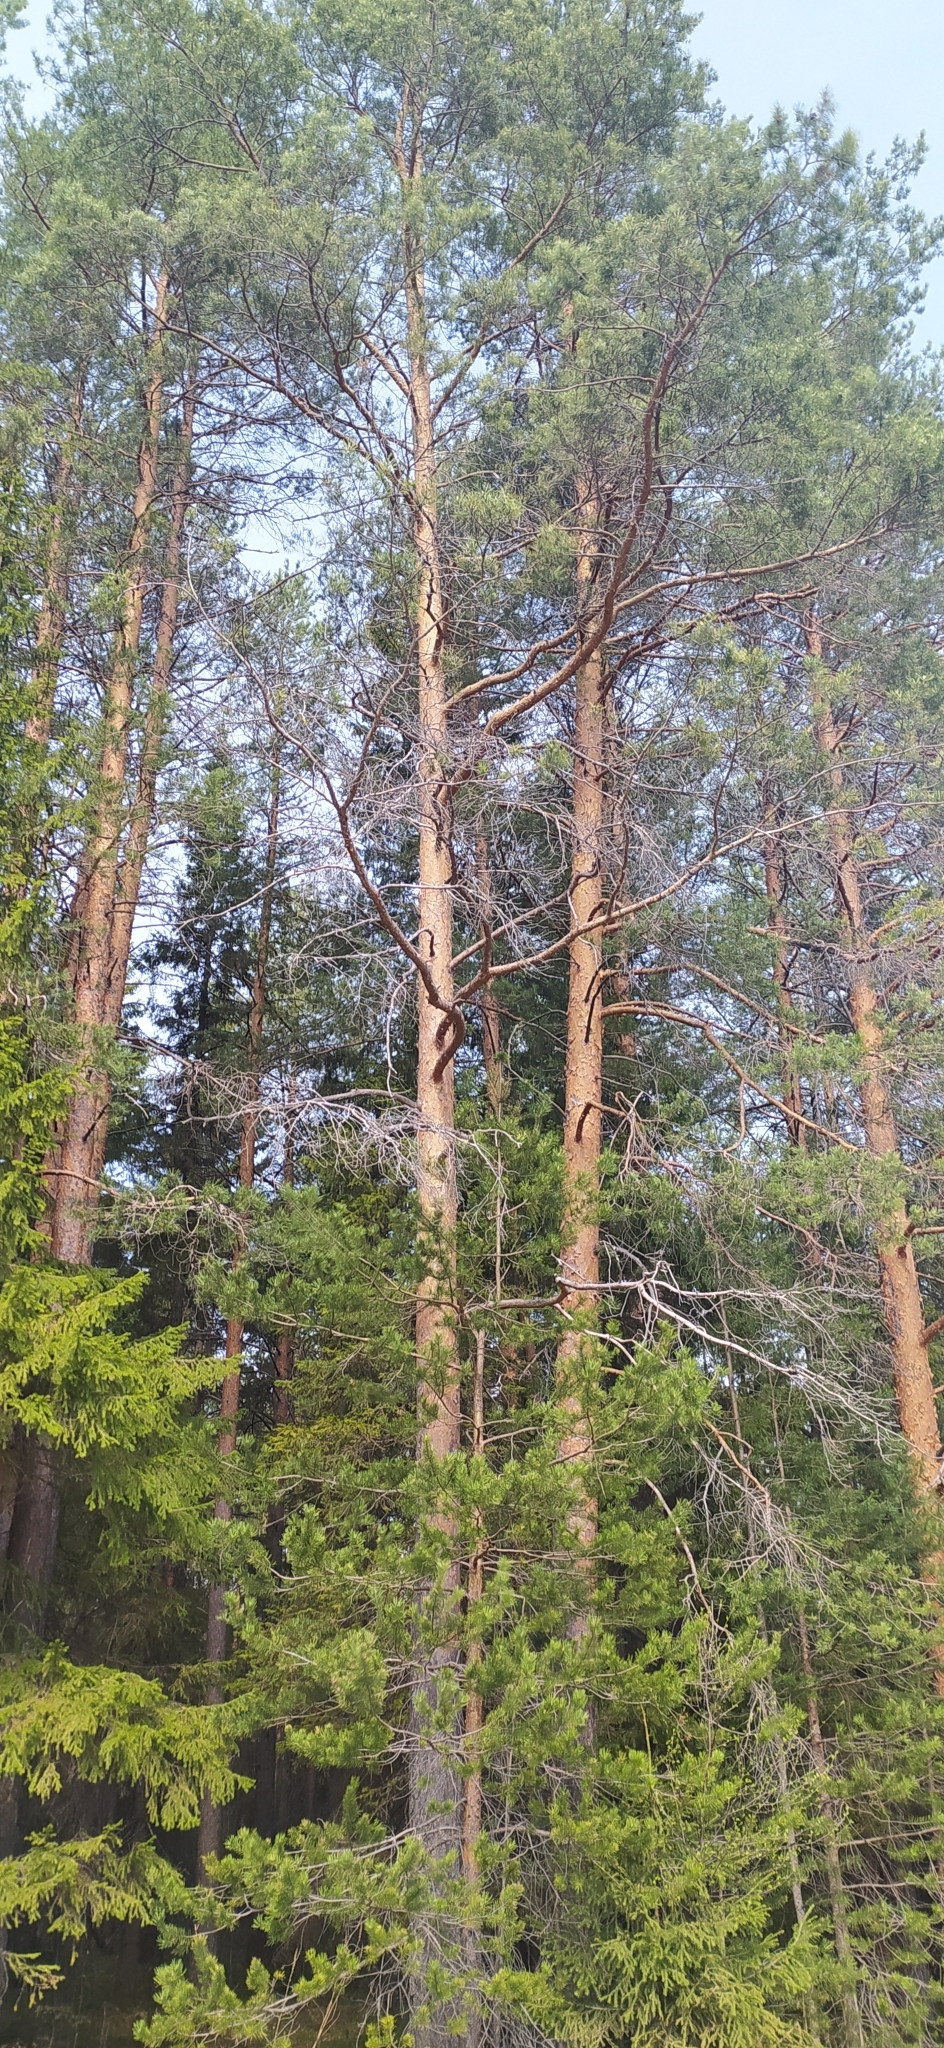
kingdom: Plantae
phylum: Tracheophyta
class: Pinopsida
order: Pinales
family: Pinaceae
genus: Pinus
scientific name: Pinus sylvestris
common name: Scots pine
